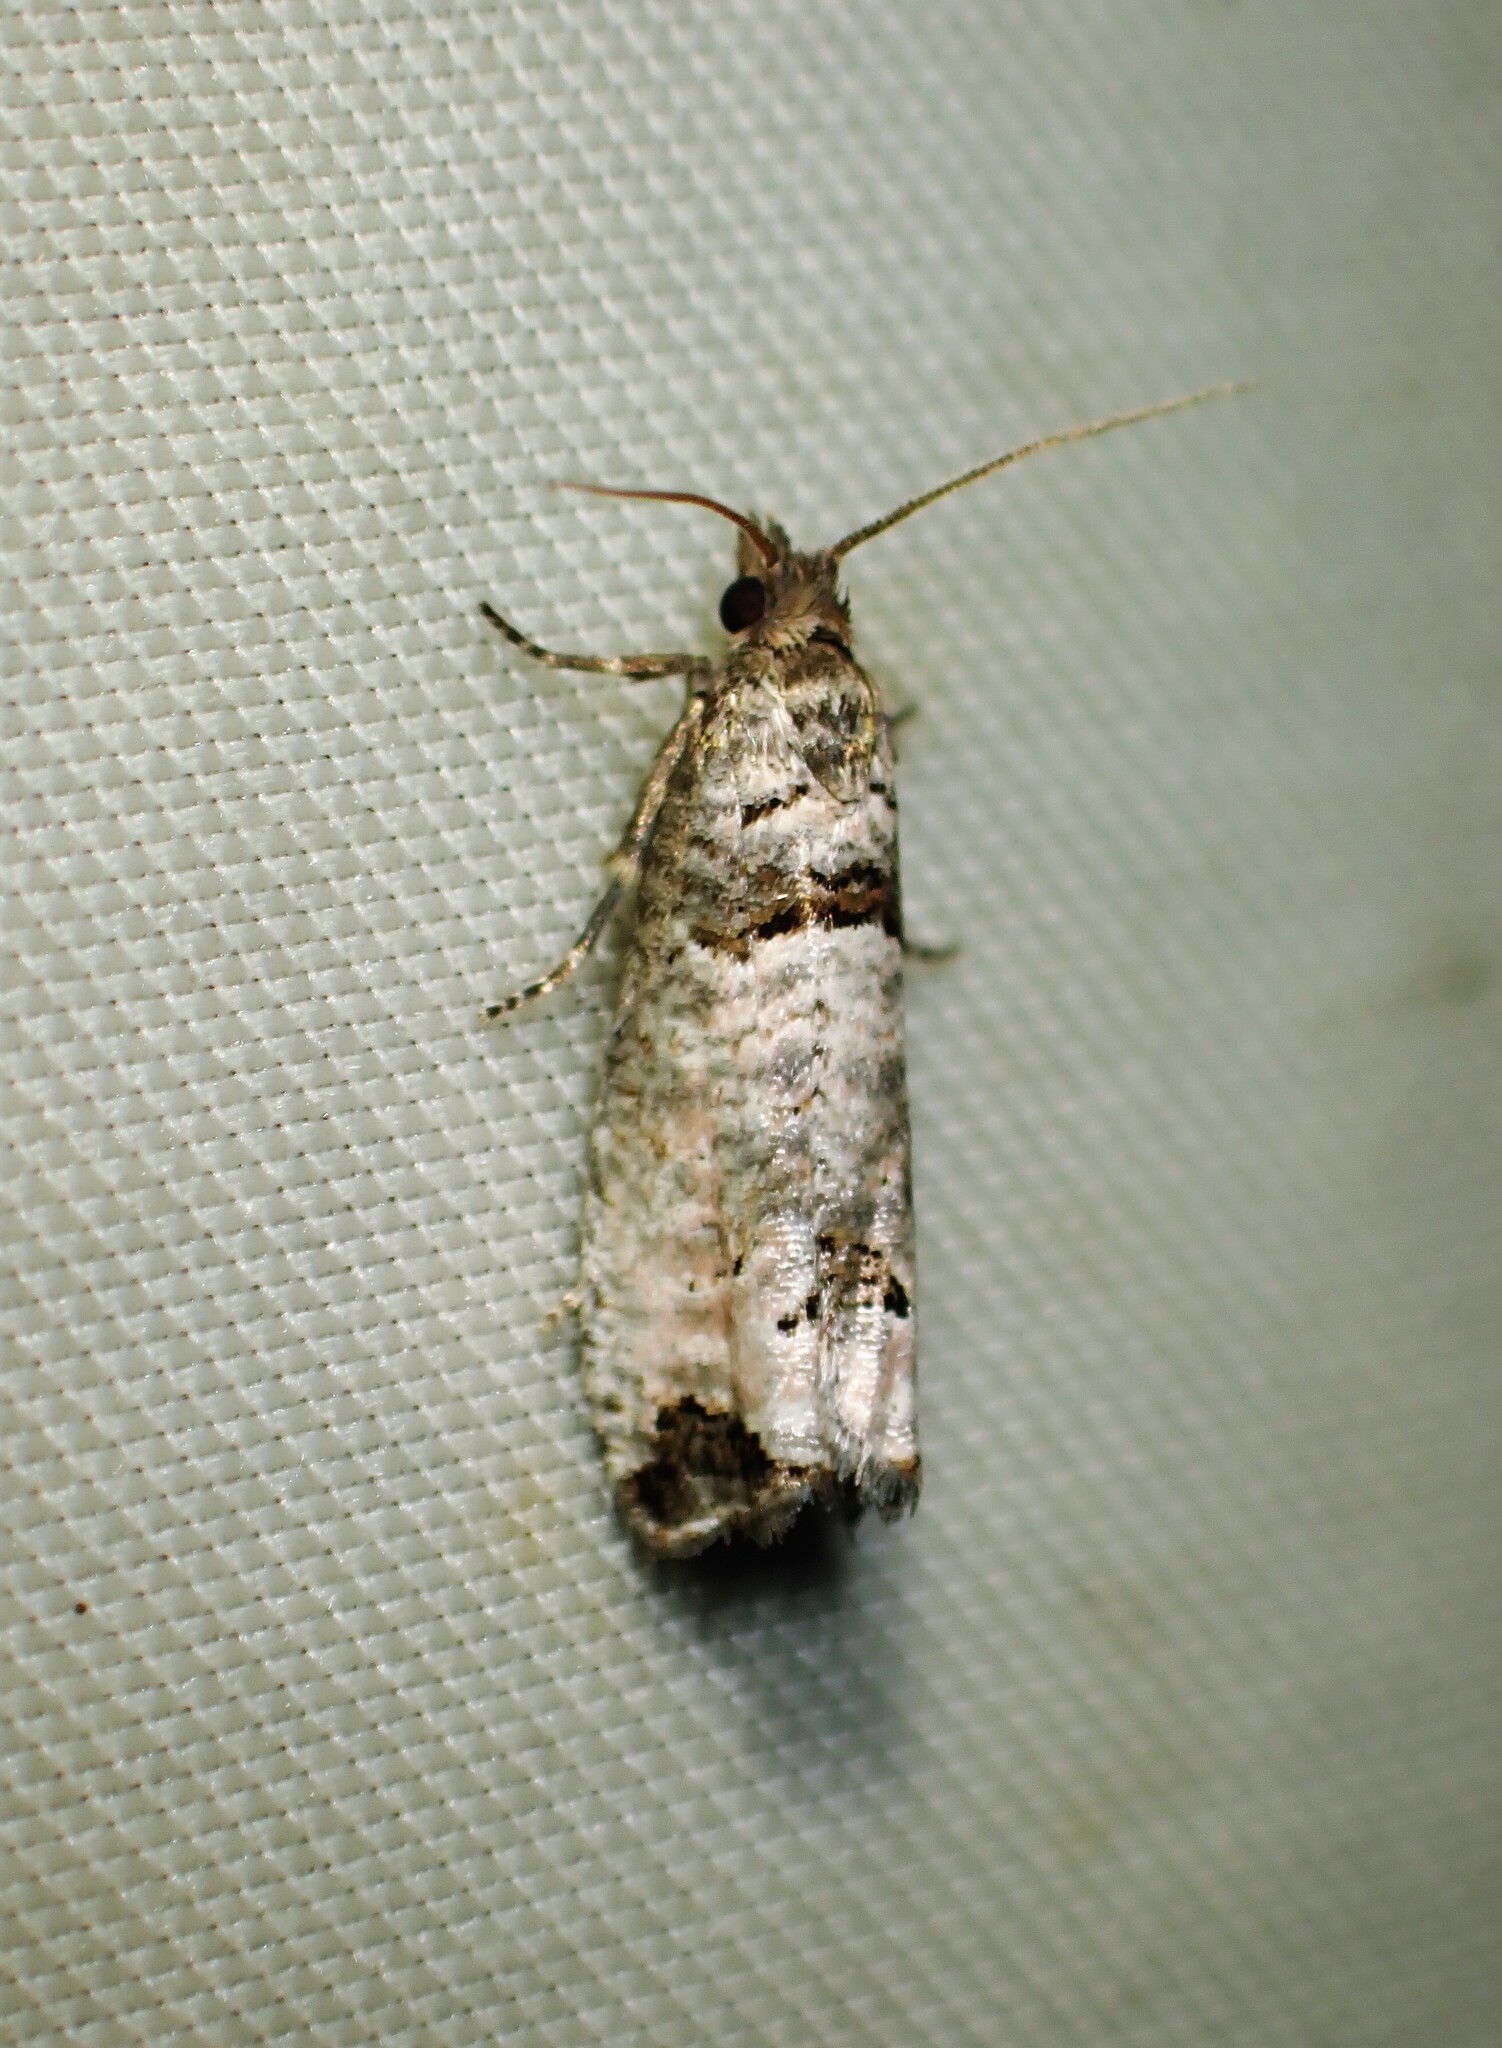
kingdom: Animalia
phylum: Arthropoda
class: Insecta
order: Lepidoptera
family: Tortricidae
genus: Notocelia
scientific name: Notocelia culminana
